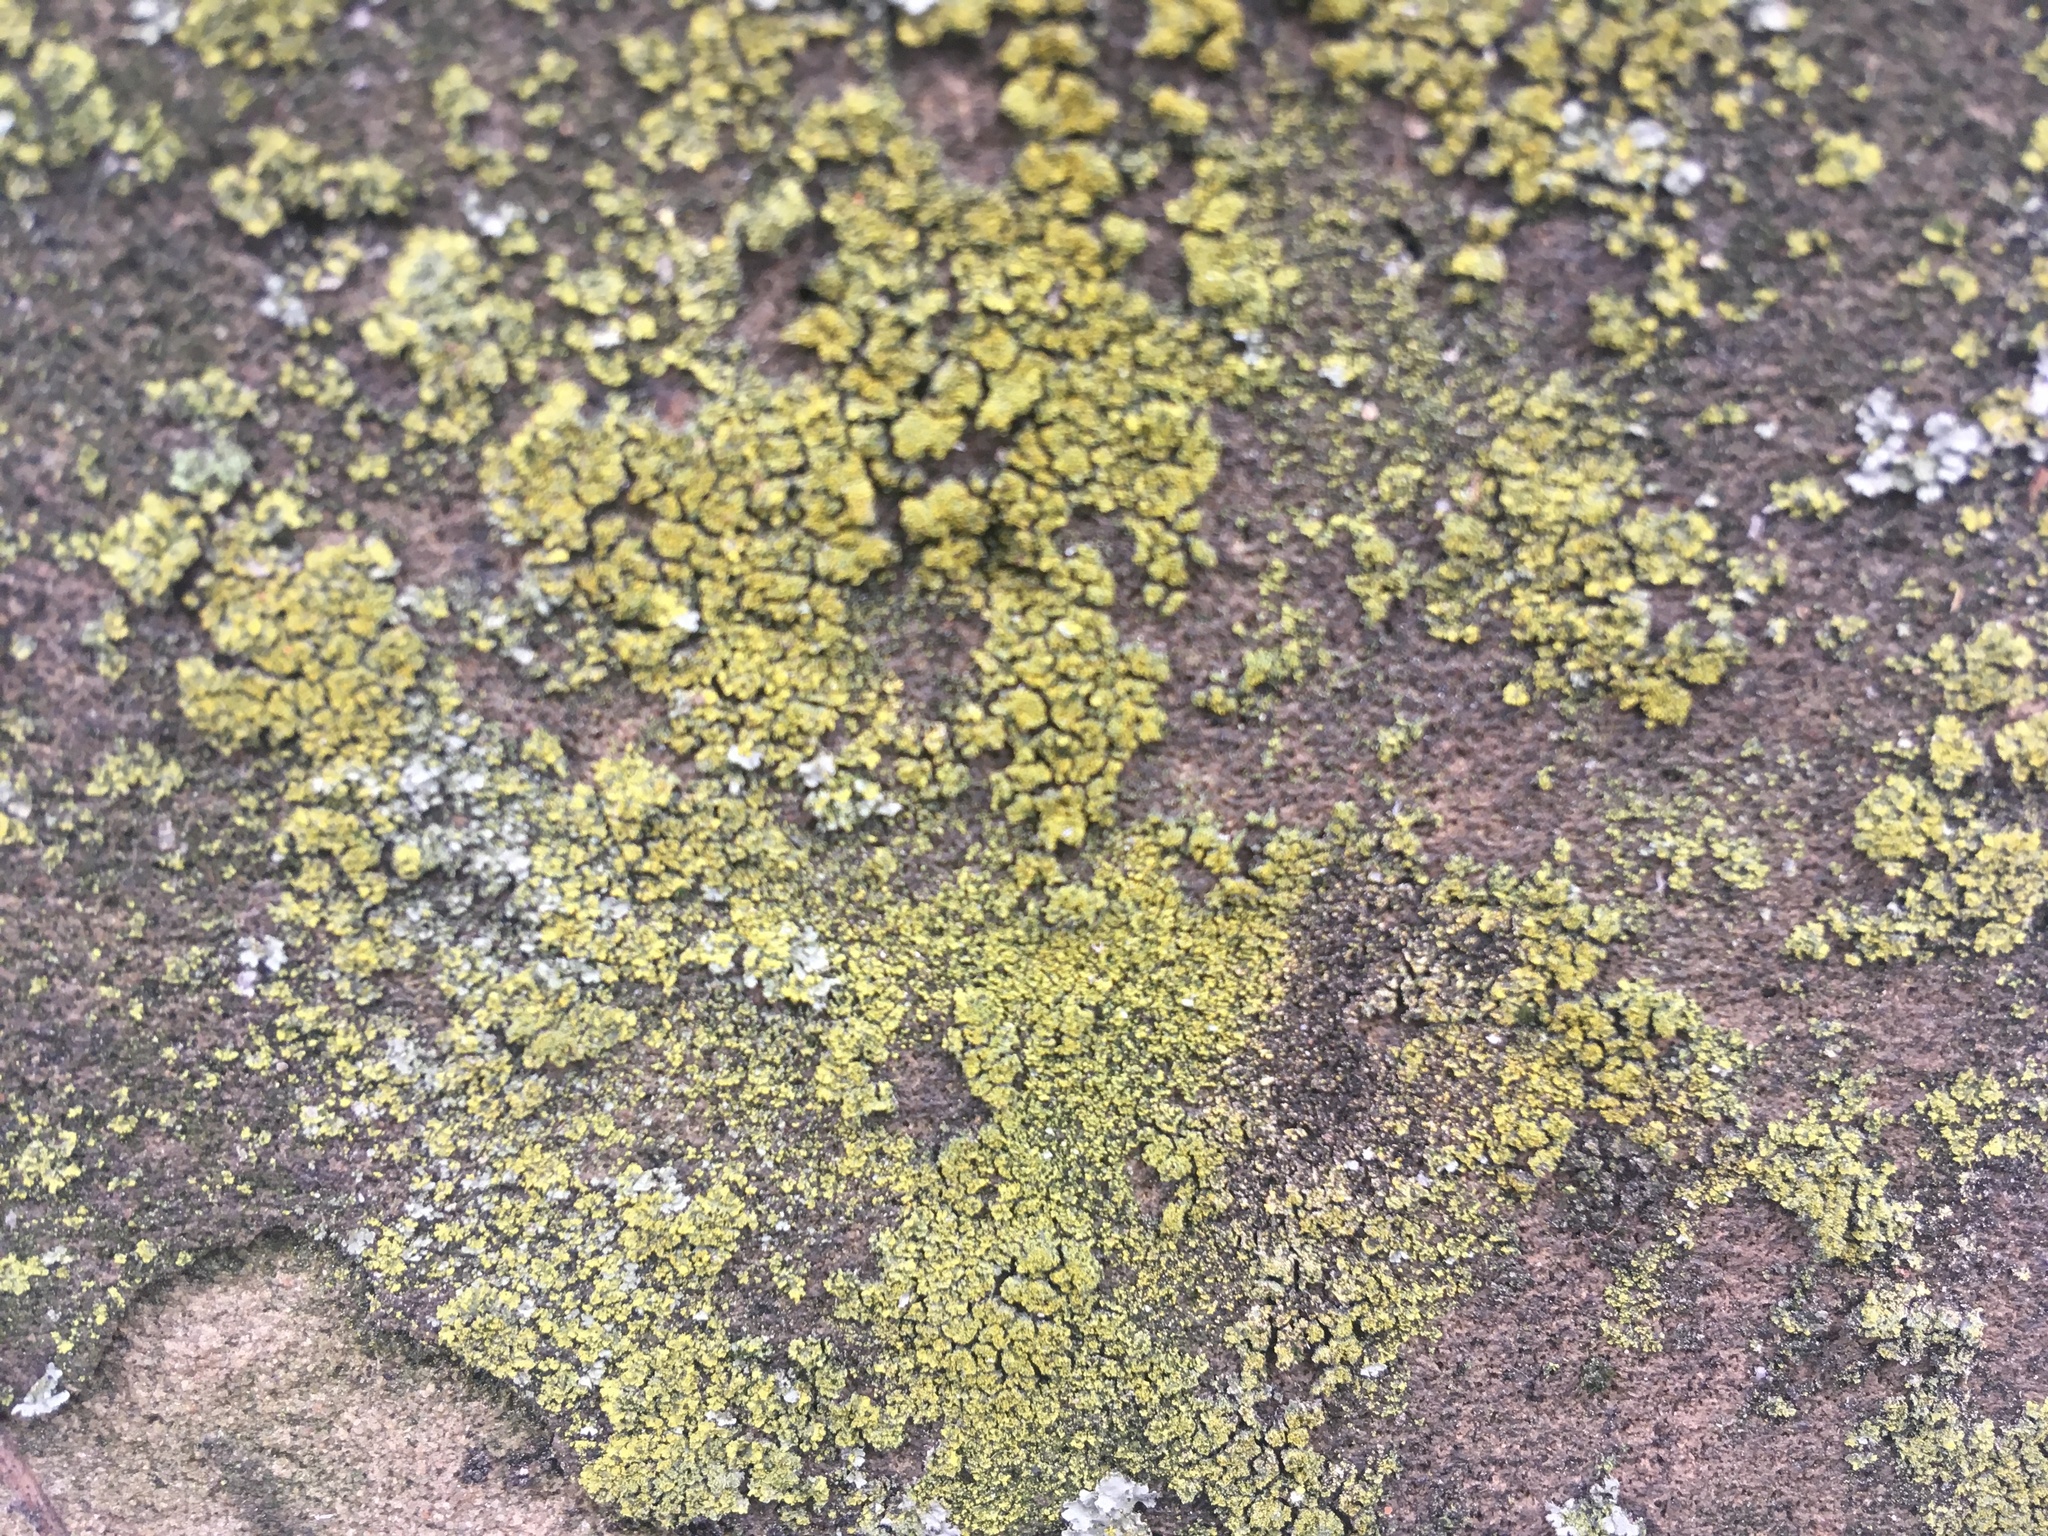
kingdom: Fungi
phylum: Ascomycota
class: Candelariomycetes
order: Candelariales
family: Candelariaceae
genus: Candelaria
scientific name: Candelaria concolor
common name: Candleflame lichen
